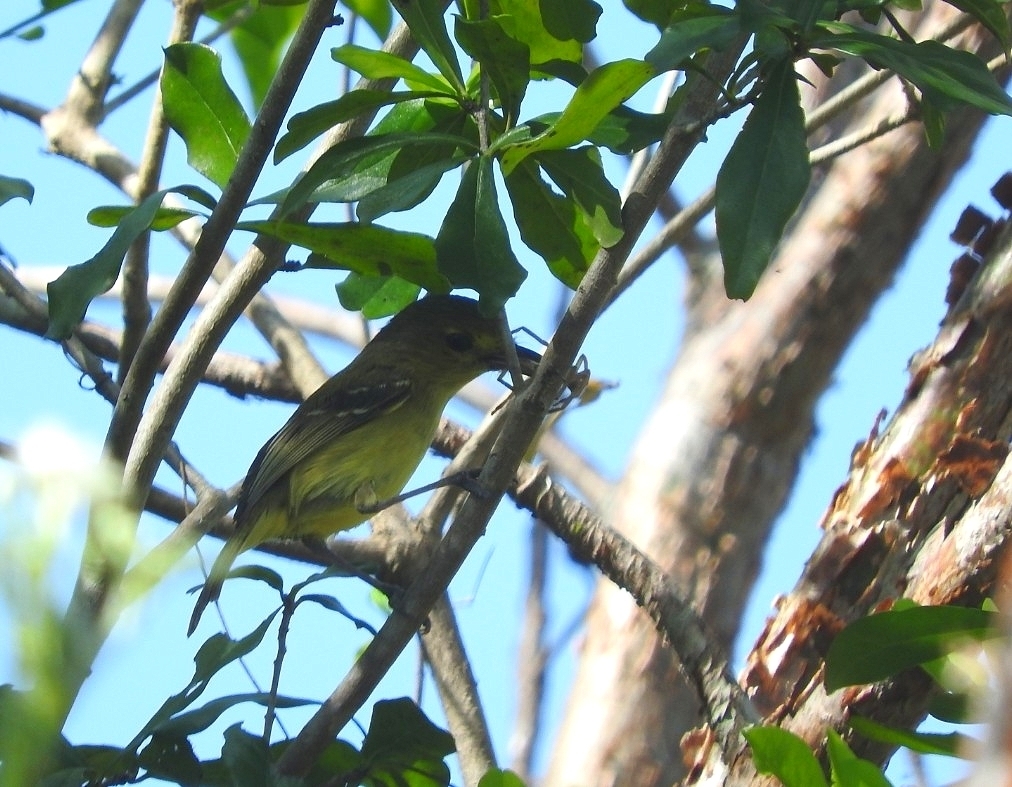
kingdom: Animalia
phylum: Chordata
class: Aves
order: Passeriformes
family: Vireonidae
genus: Vireo
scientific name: Vireo pallens
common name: Mangrove vireo
